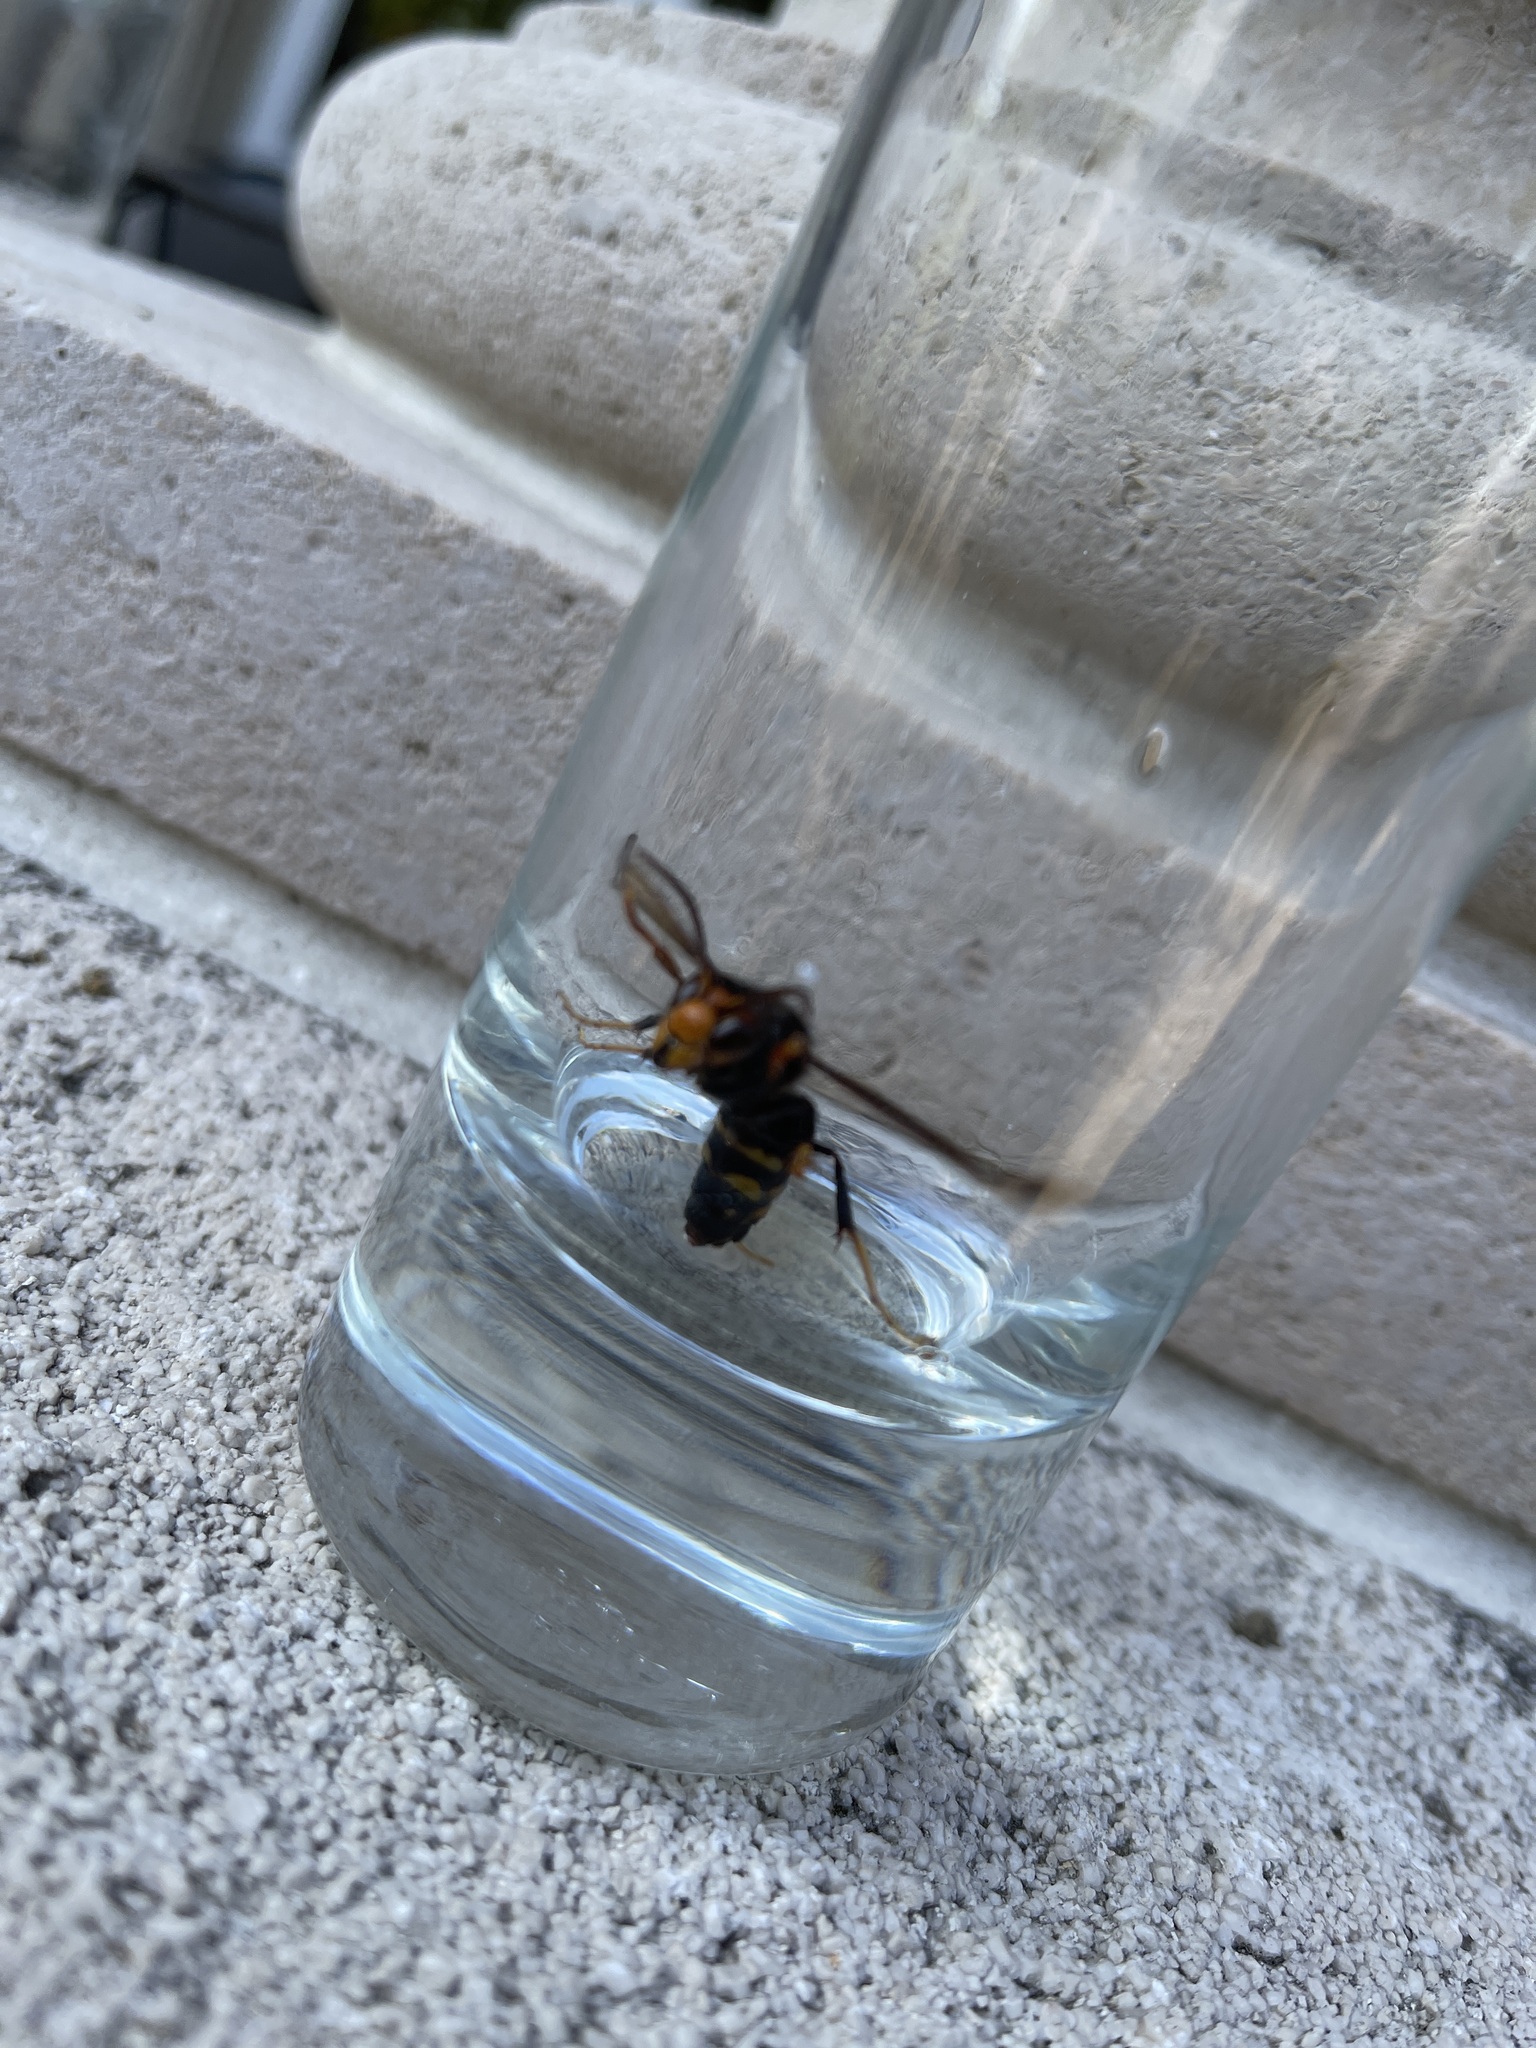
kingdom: Animalia
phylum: Arthropoda
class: Insecta
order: Hymenoptera
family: Vespidae
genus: Vespa
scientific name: Vespa velutina
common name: Asian hornet
